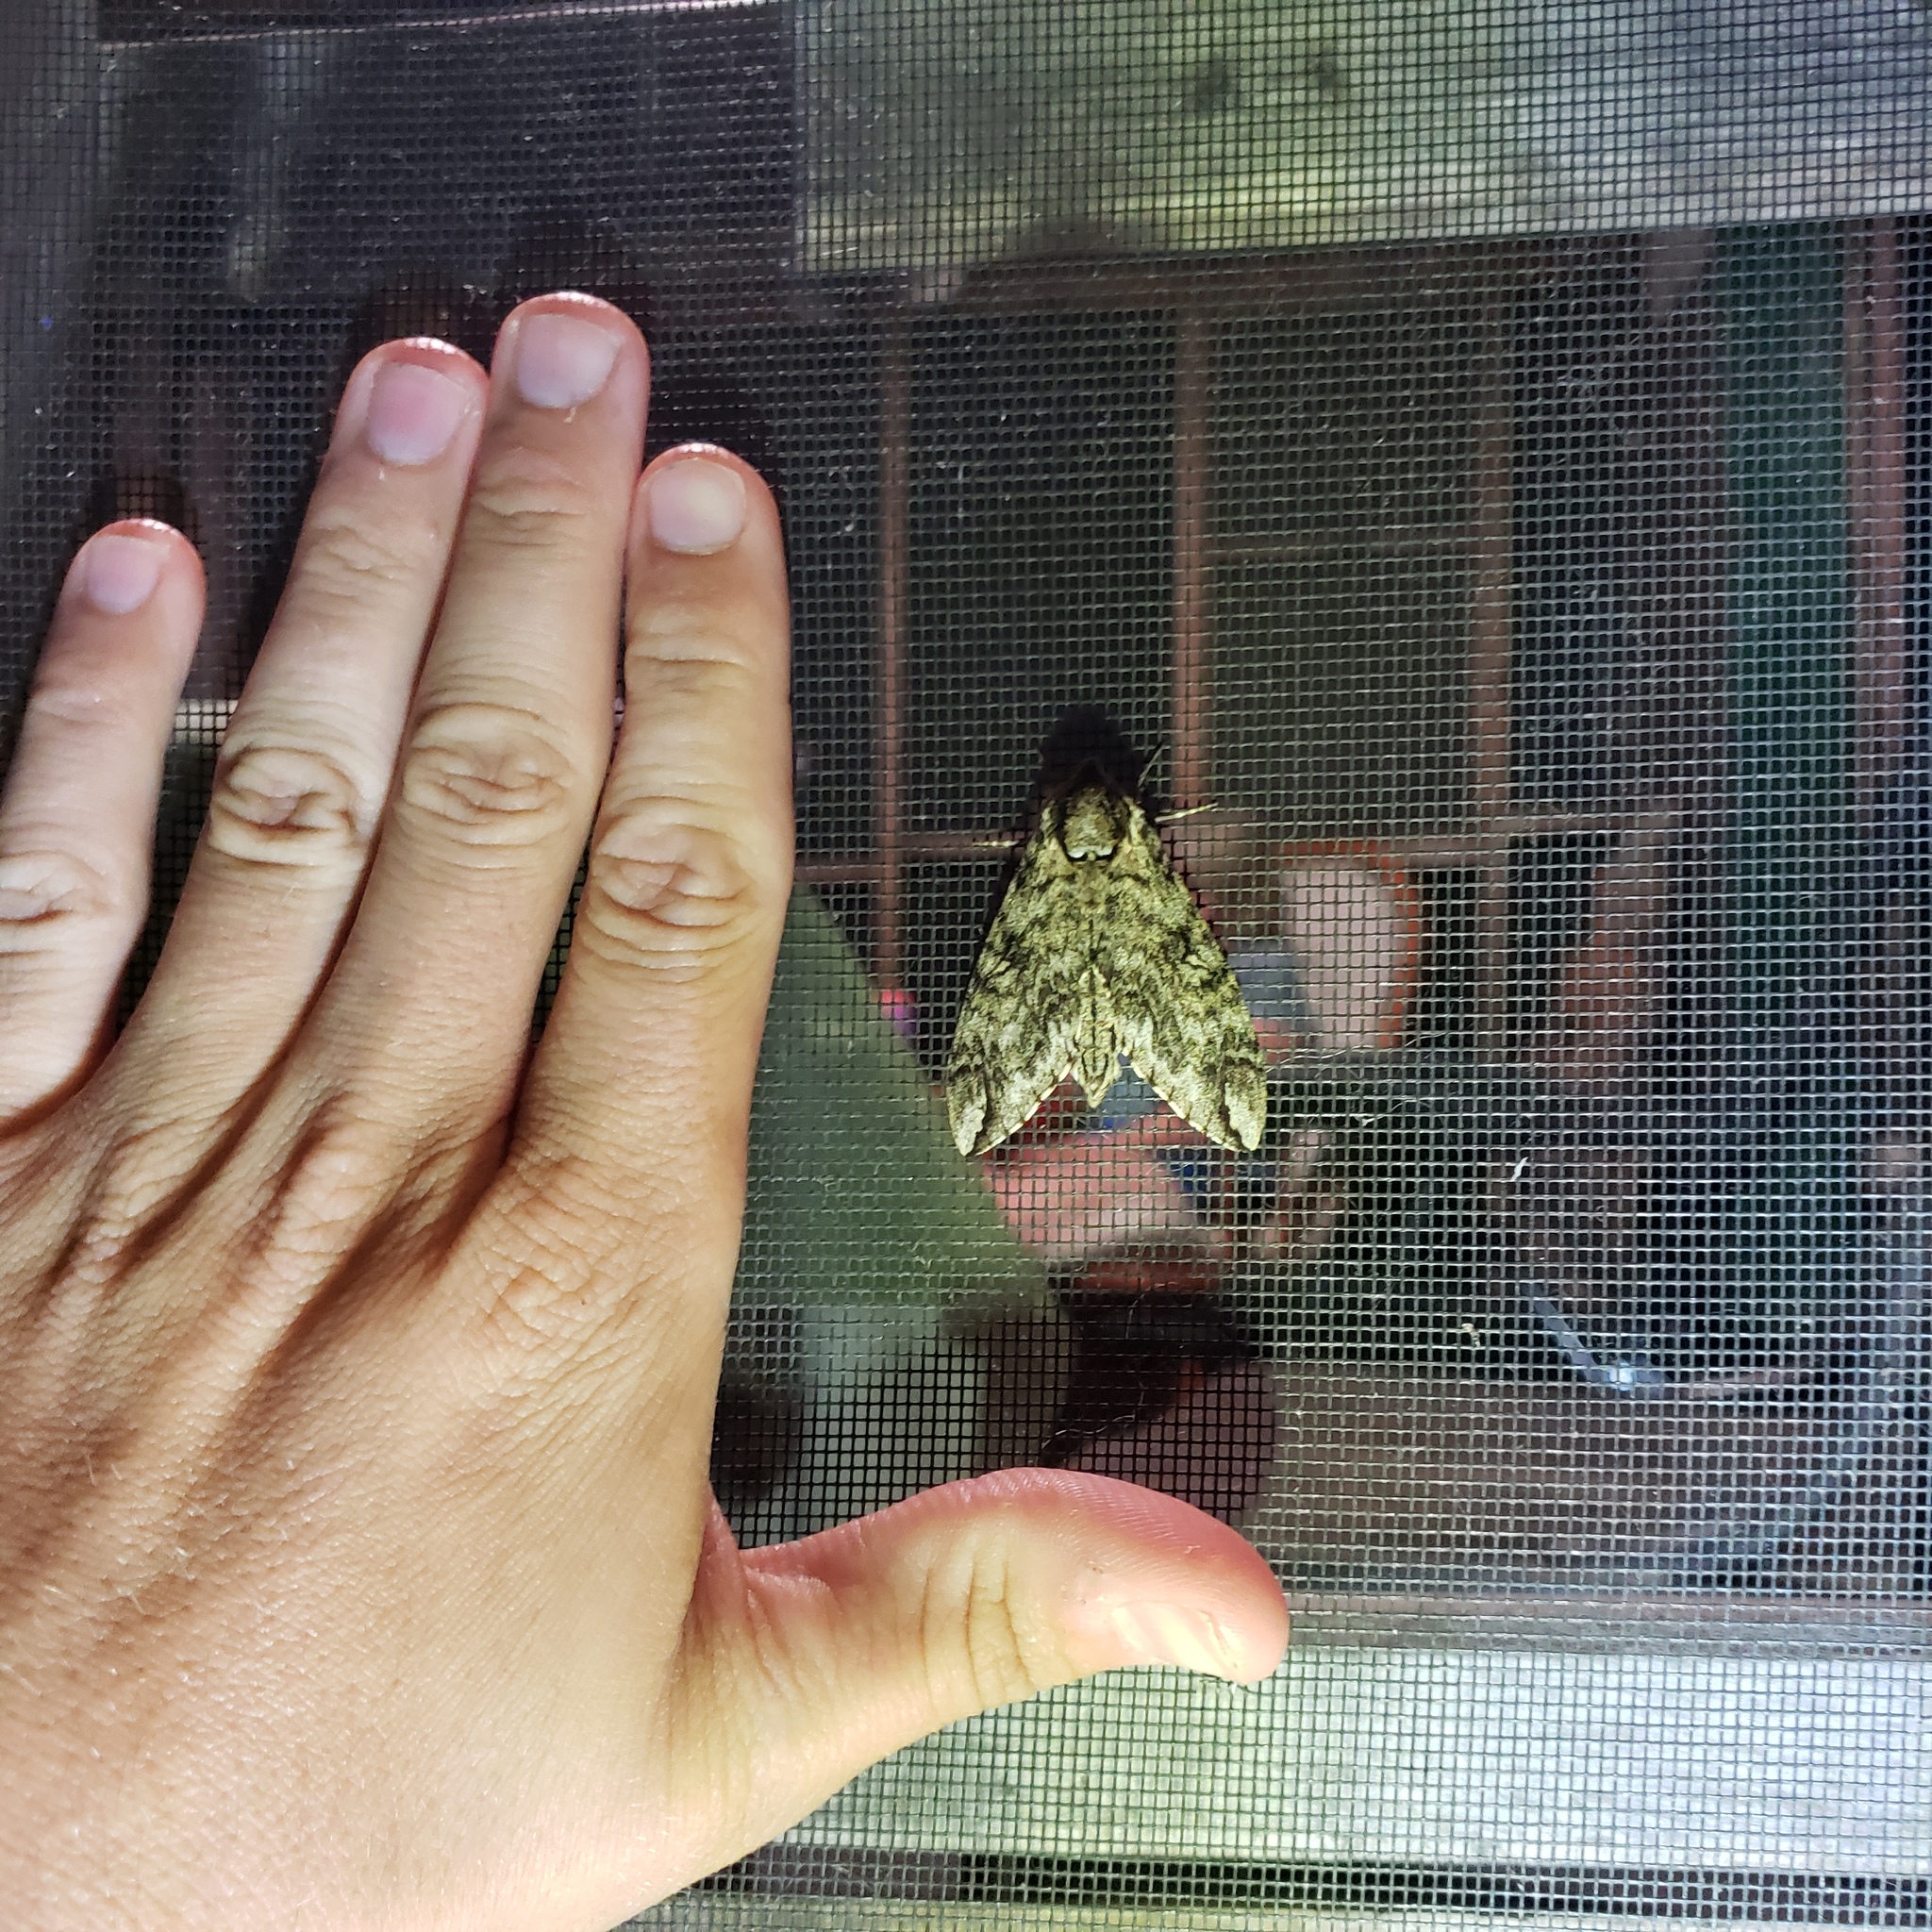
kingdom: Animalia
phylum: Arthropoda
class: Insecta
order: Lepidoptera
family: Sphingidae
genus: Ceratomia
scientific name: Ceratomia undulosa
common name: Waved sphinx
